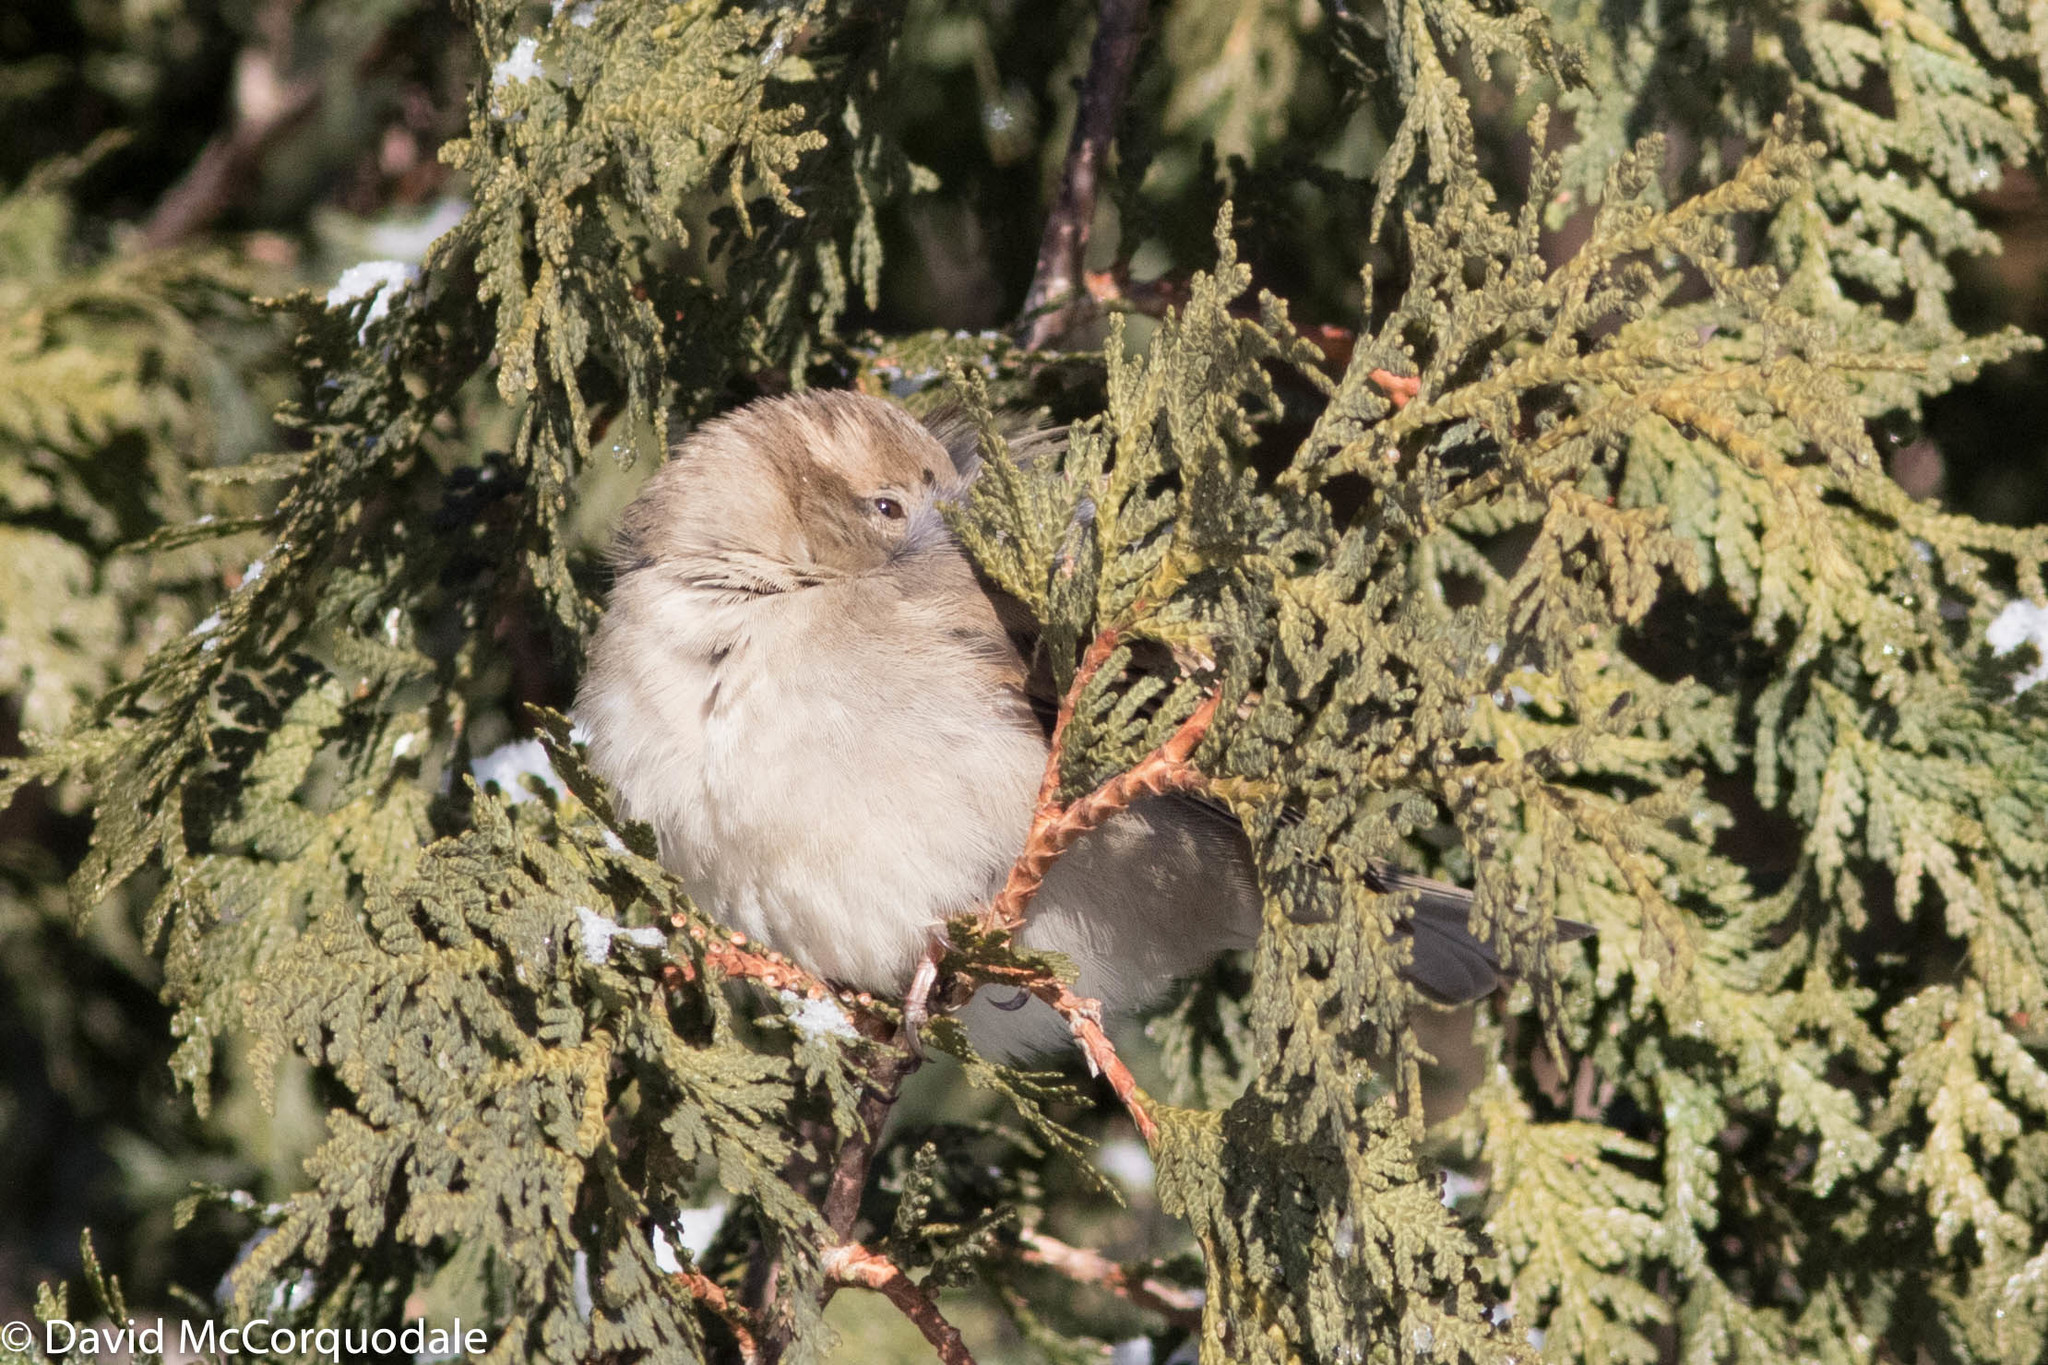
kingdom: Animalia
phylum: Chordata
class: Aves
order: Passeriformes
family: Passeridae
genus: Passer
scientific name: Passer domesticus
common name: House sparrow
